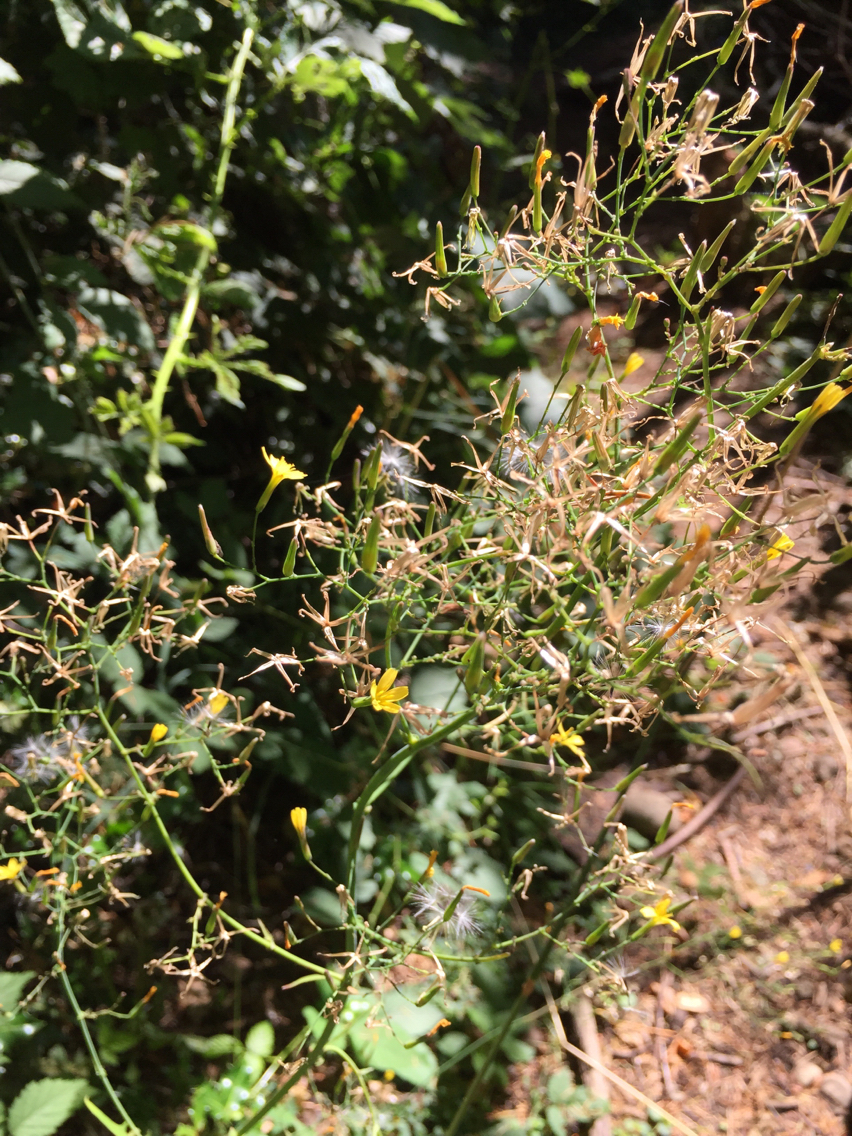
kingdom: Plantae
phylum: Tracheophyta
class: Magnoliopsida
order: Asterales
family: Asteraceae
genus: Mycelis
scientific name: Mycelis muralis
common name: Wall lettuce
